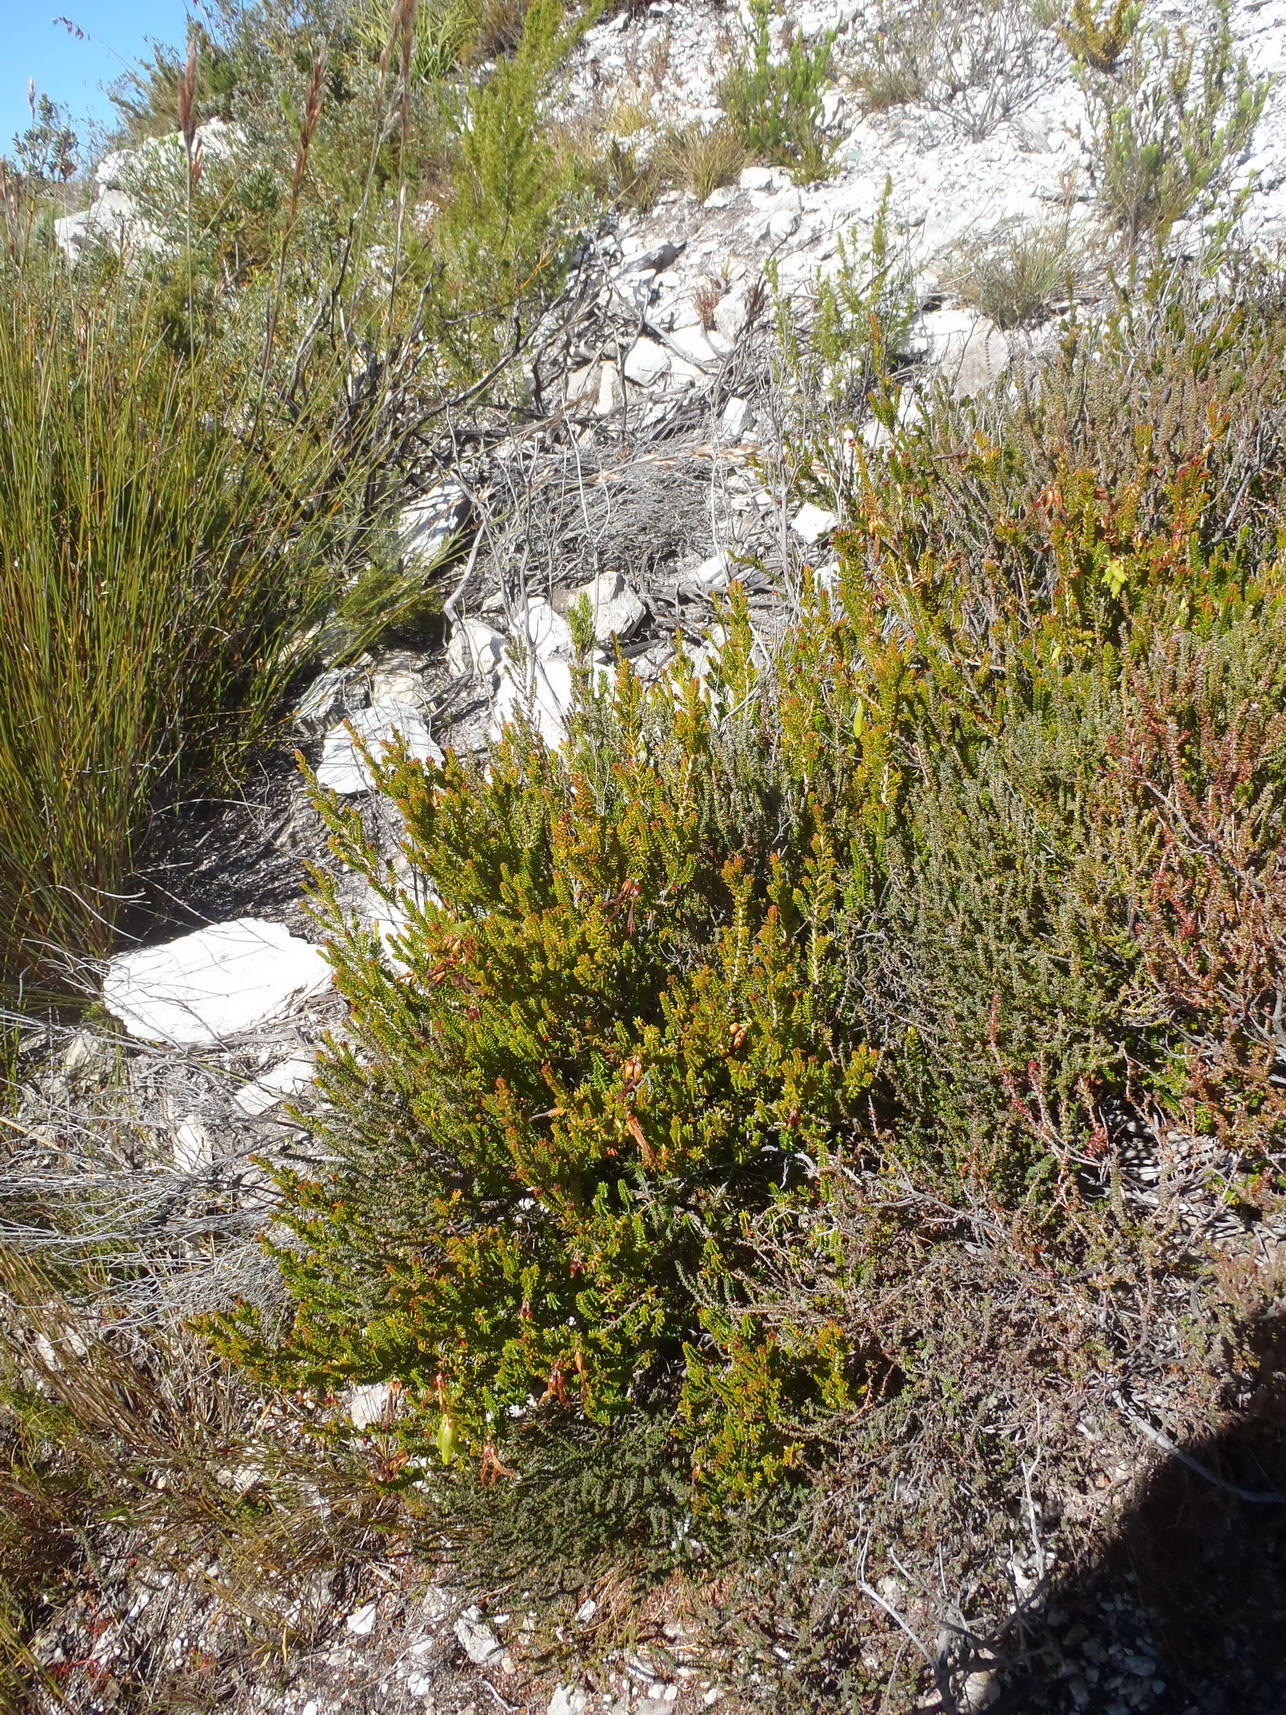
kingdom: Plantae
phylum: Tracheophyta
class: Magnoliopsida
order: Ericales
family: Ericaceae
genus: Erica
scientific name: Erica viridiflora
